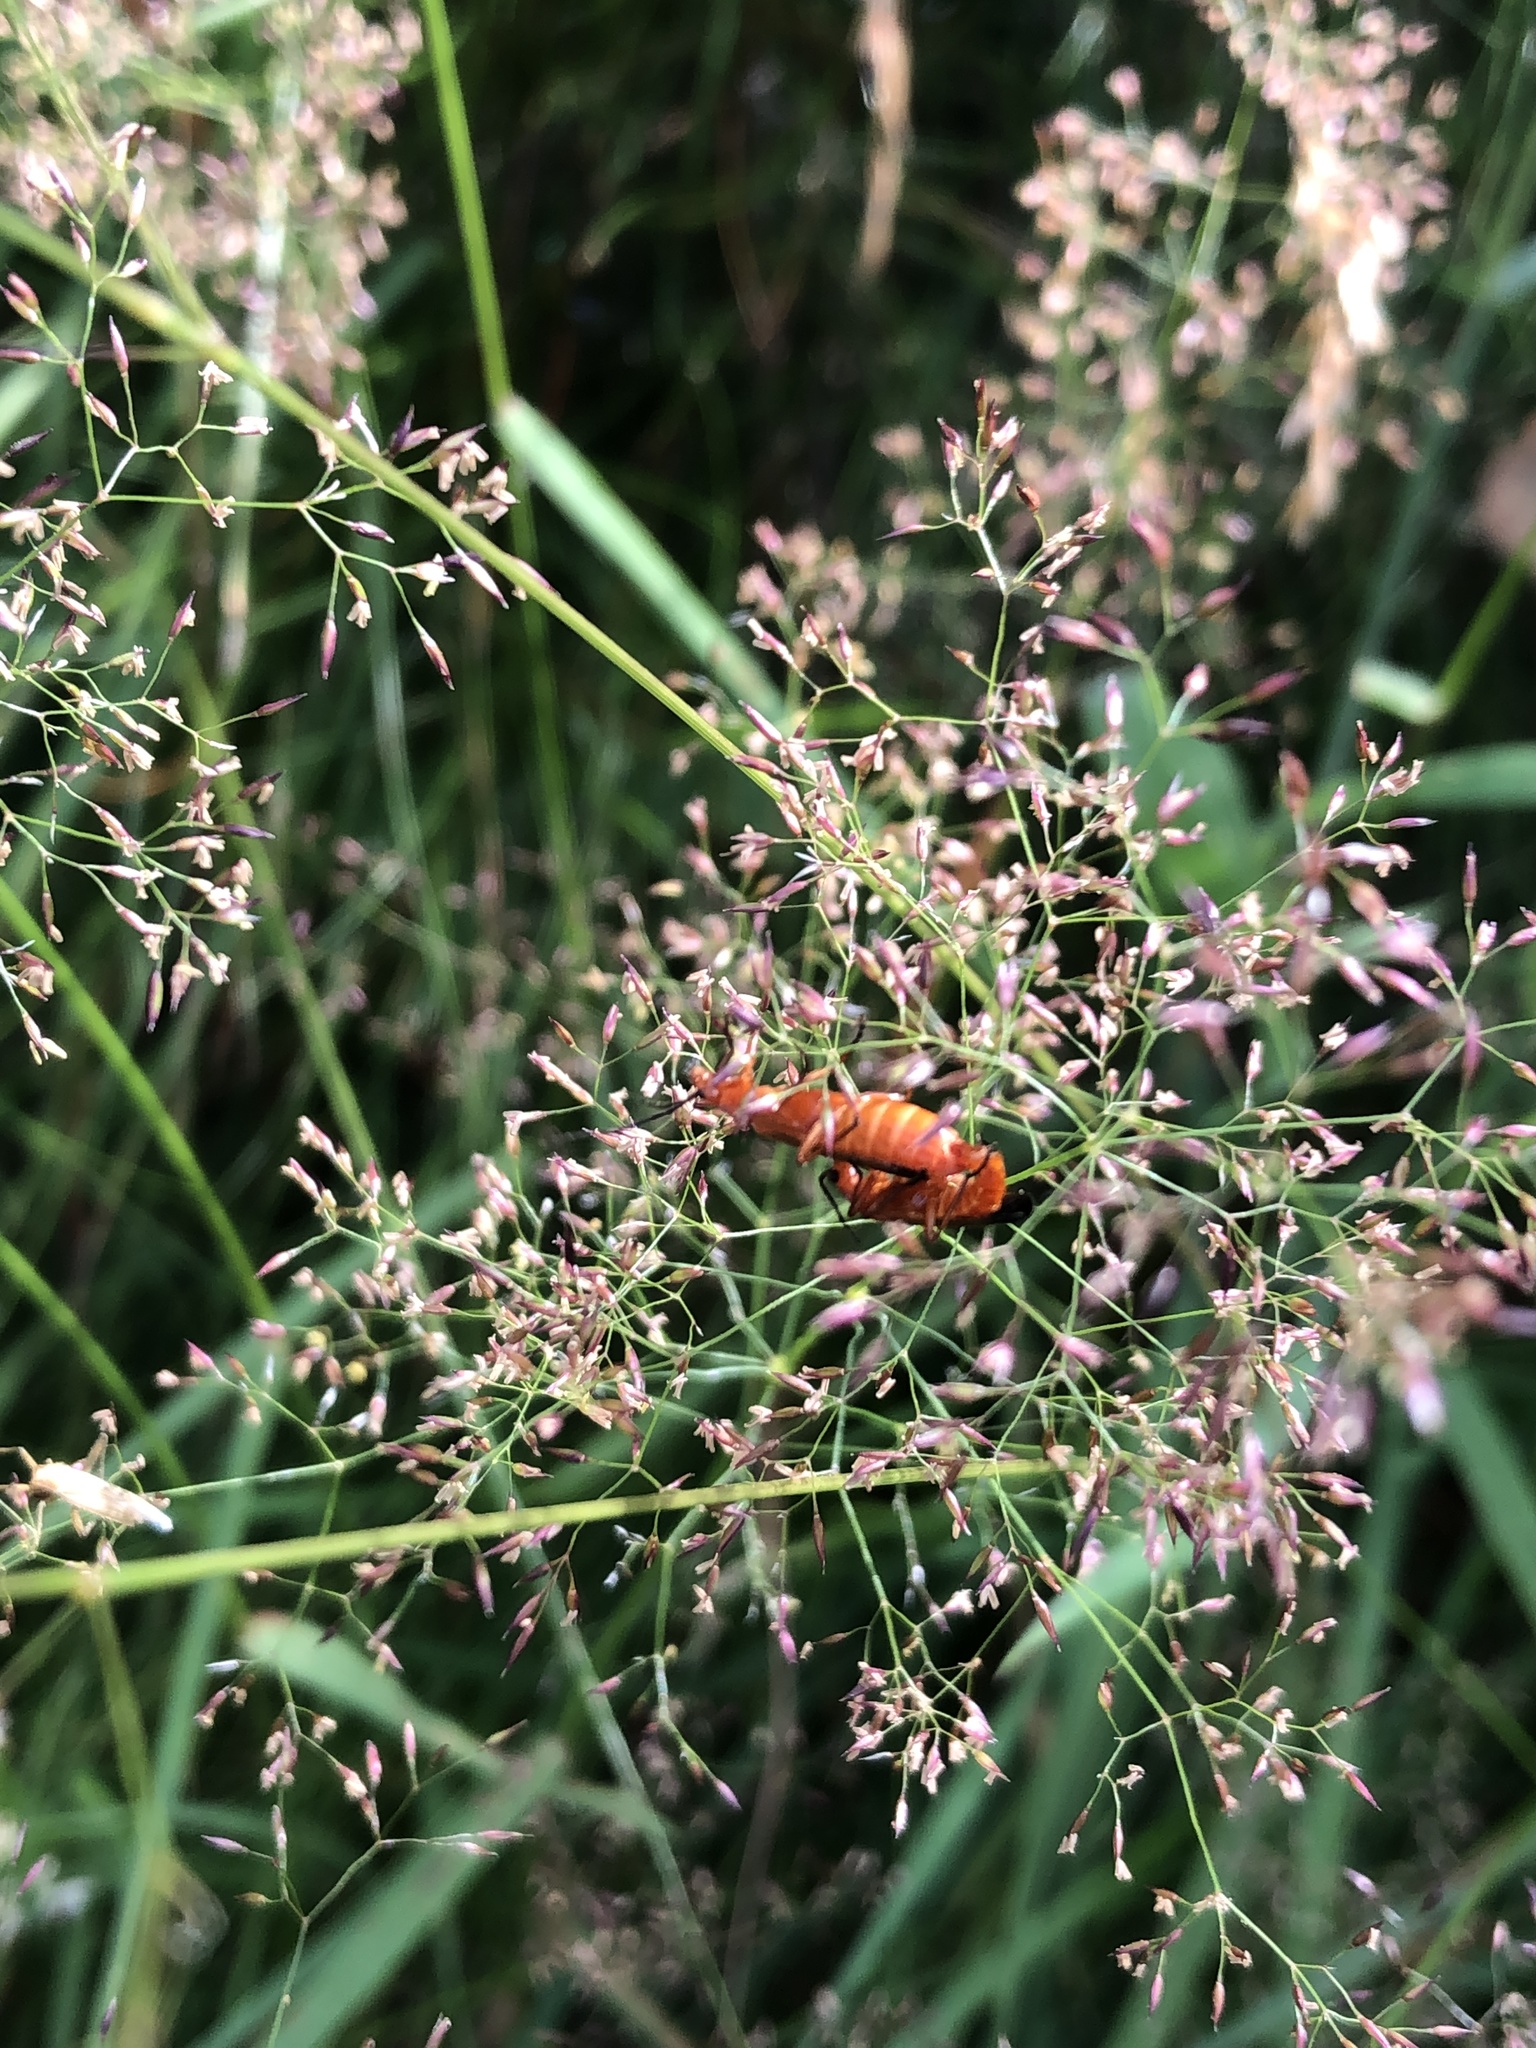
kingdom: Animalia
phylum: Arthropoda
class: Insecta
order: Coleoptera
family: Cantharidae
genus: Rhagonycha
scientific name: Rhagonycha fulva
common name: Common red soldier beetle
